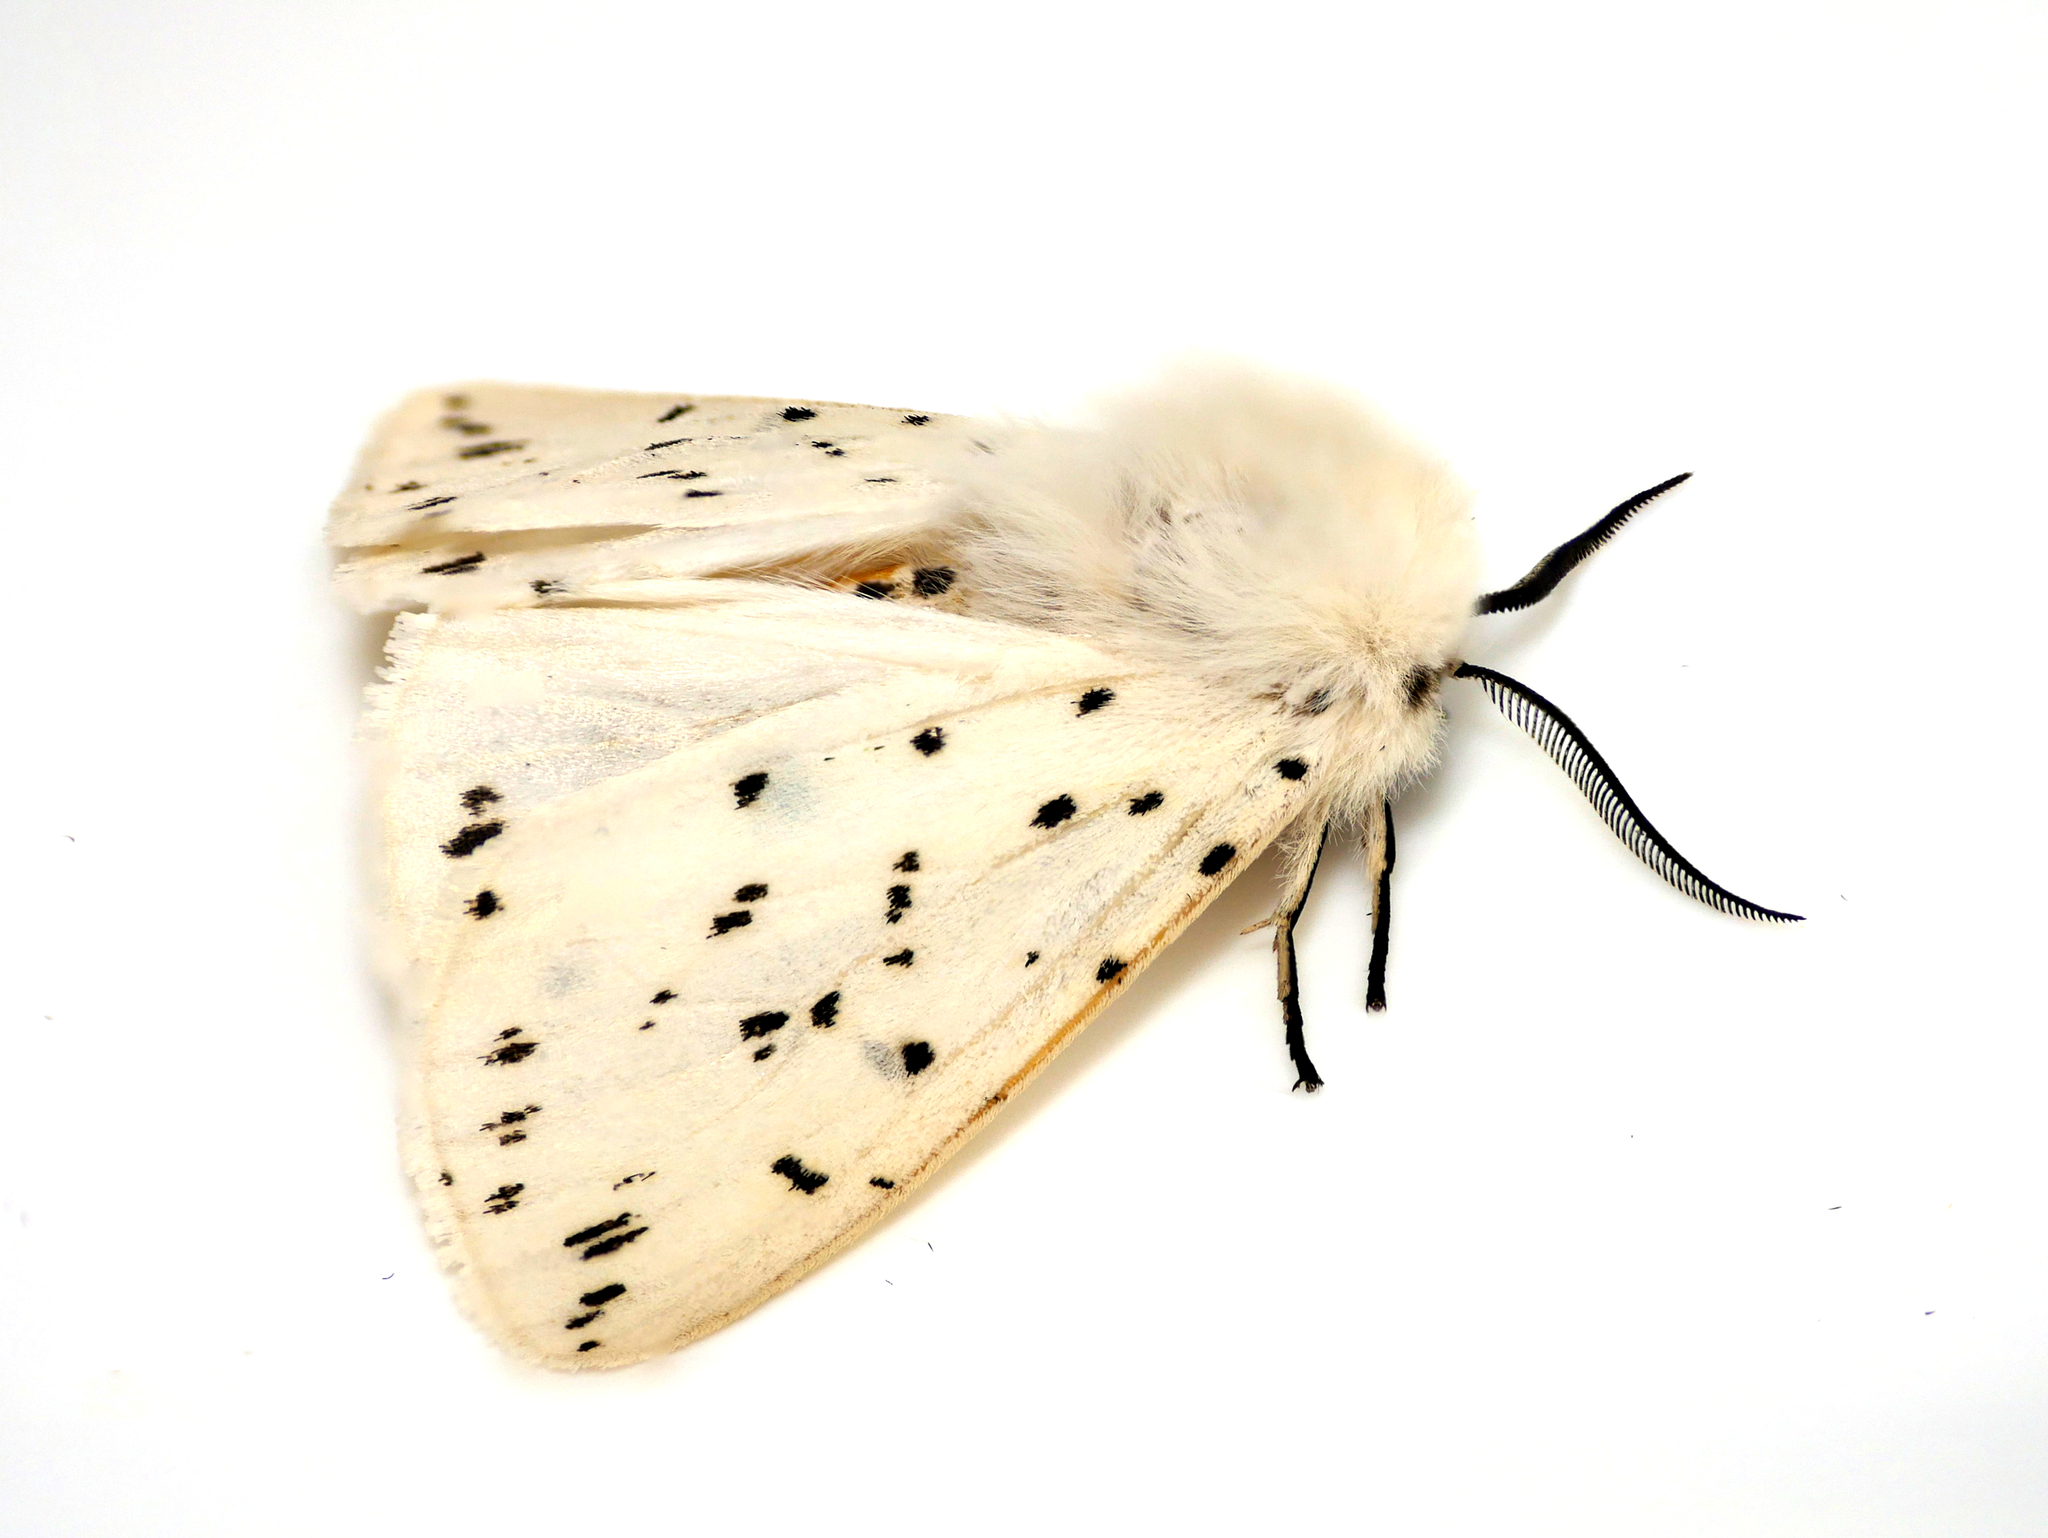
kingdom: Animalia
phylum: Arthropoda
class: Insecta
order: Lepidoptera
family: Erebidae
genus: Spilosoma
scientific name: Spilosoma lubricipeda
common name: White ermine
